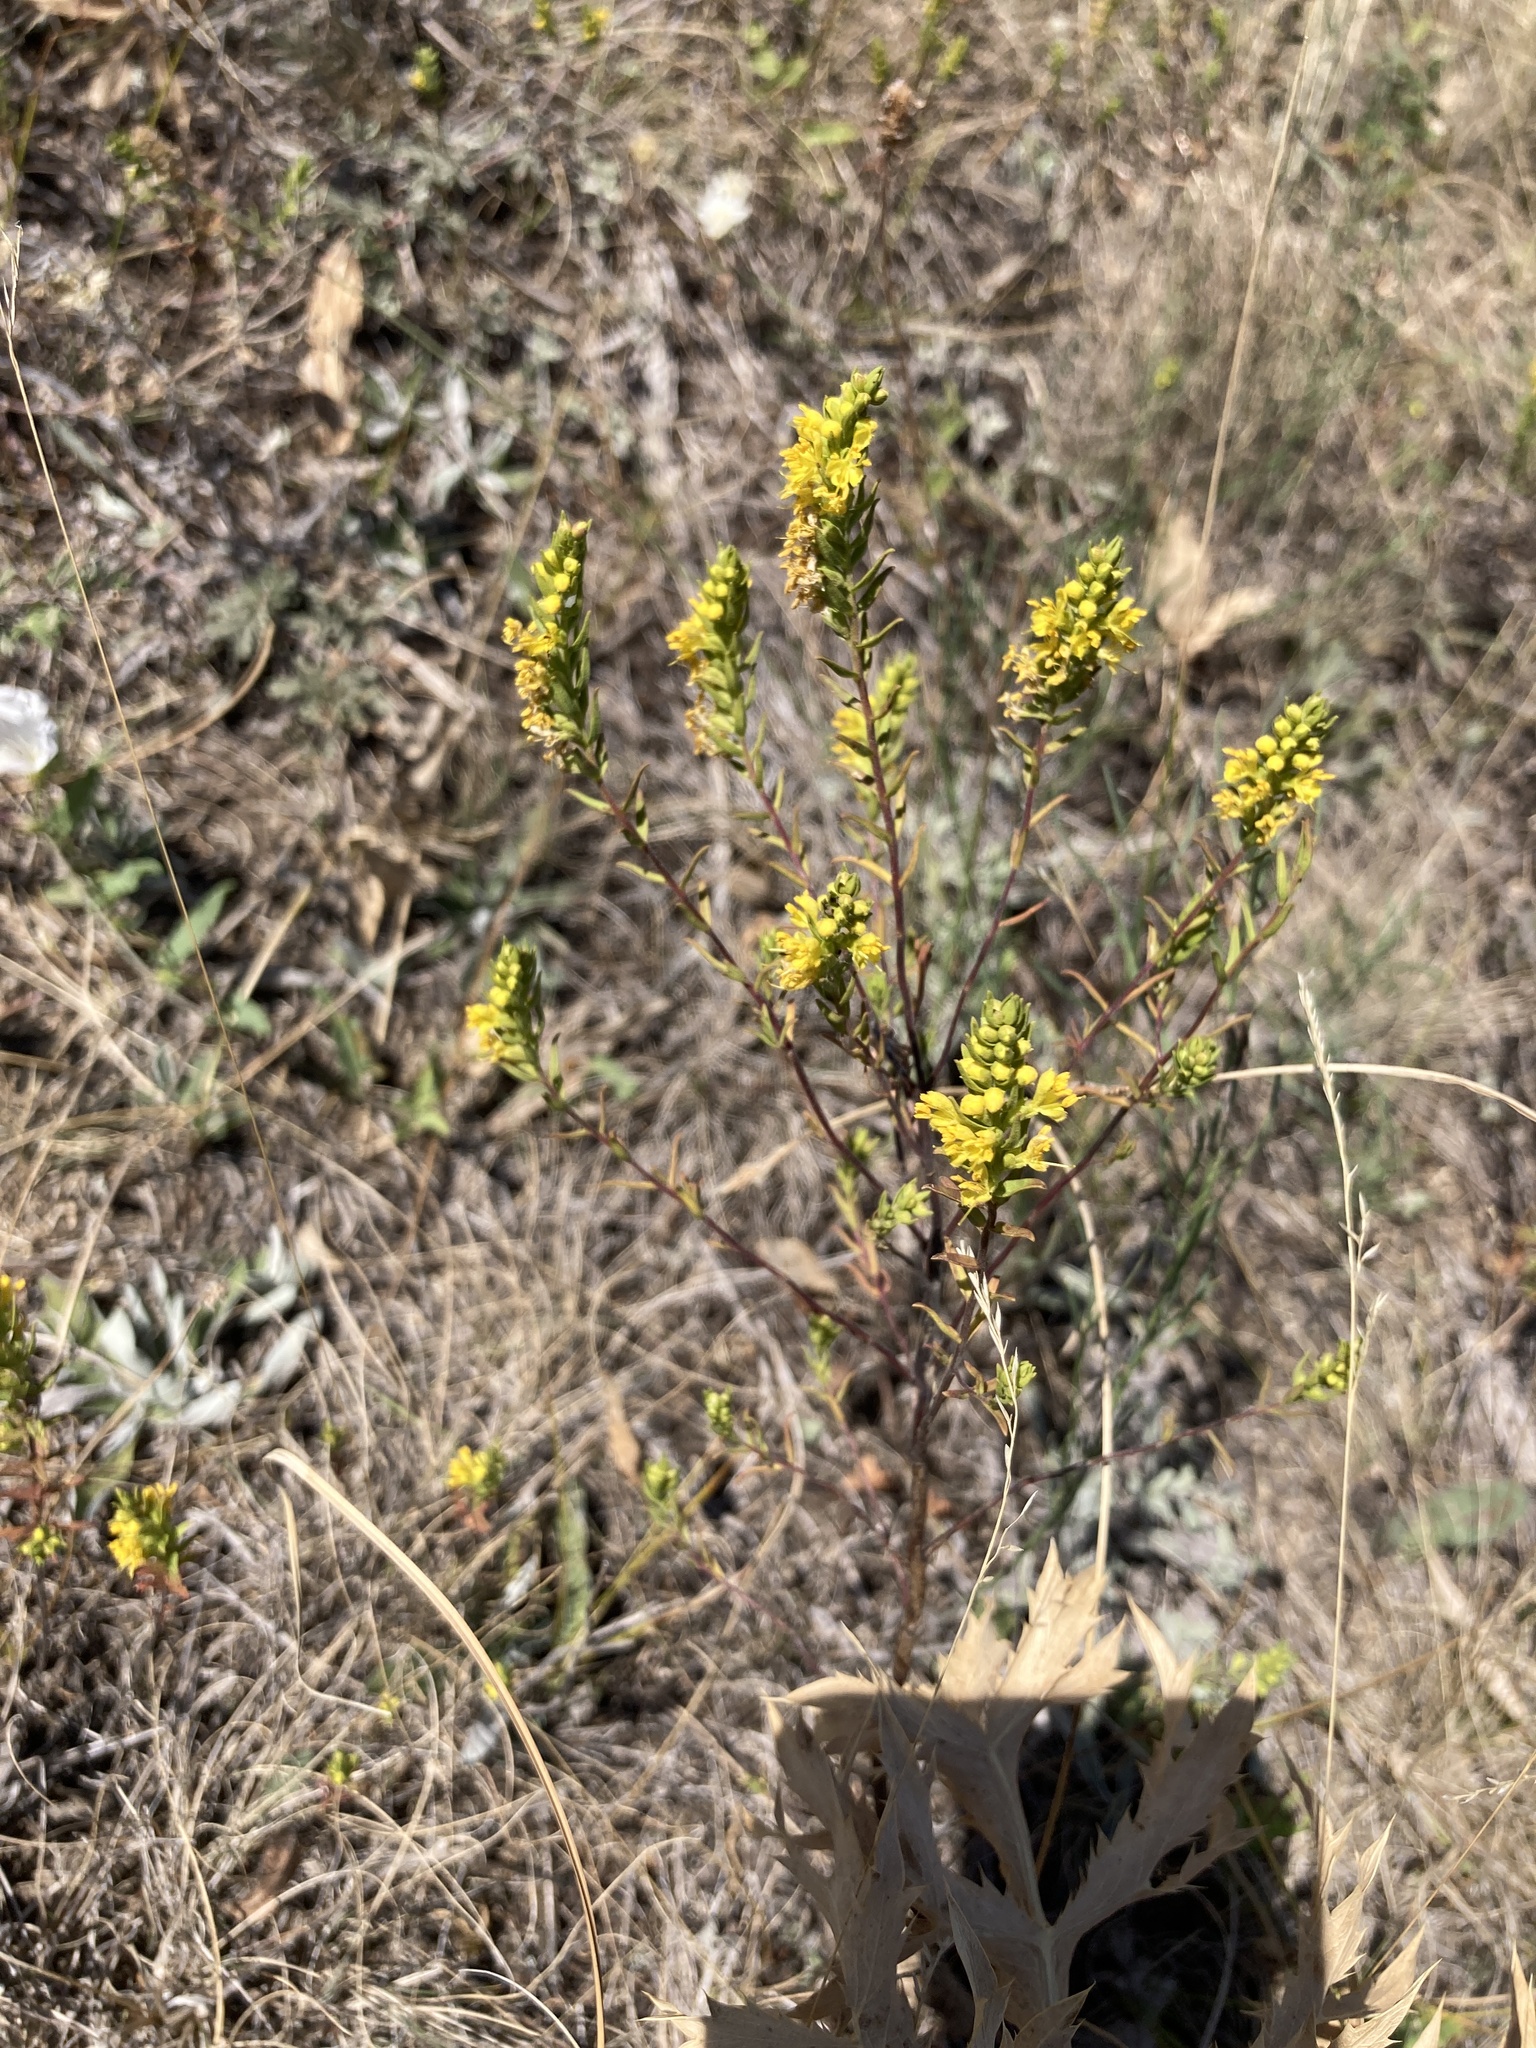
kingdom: Plantae
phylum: Tracheophyta
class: Magnoliopsida
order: Lamiales
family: Orobanchaceae
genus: Odontites
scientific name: Odontites luteus
